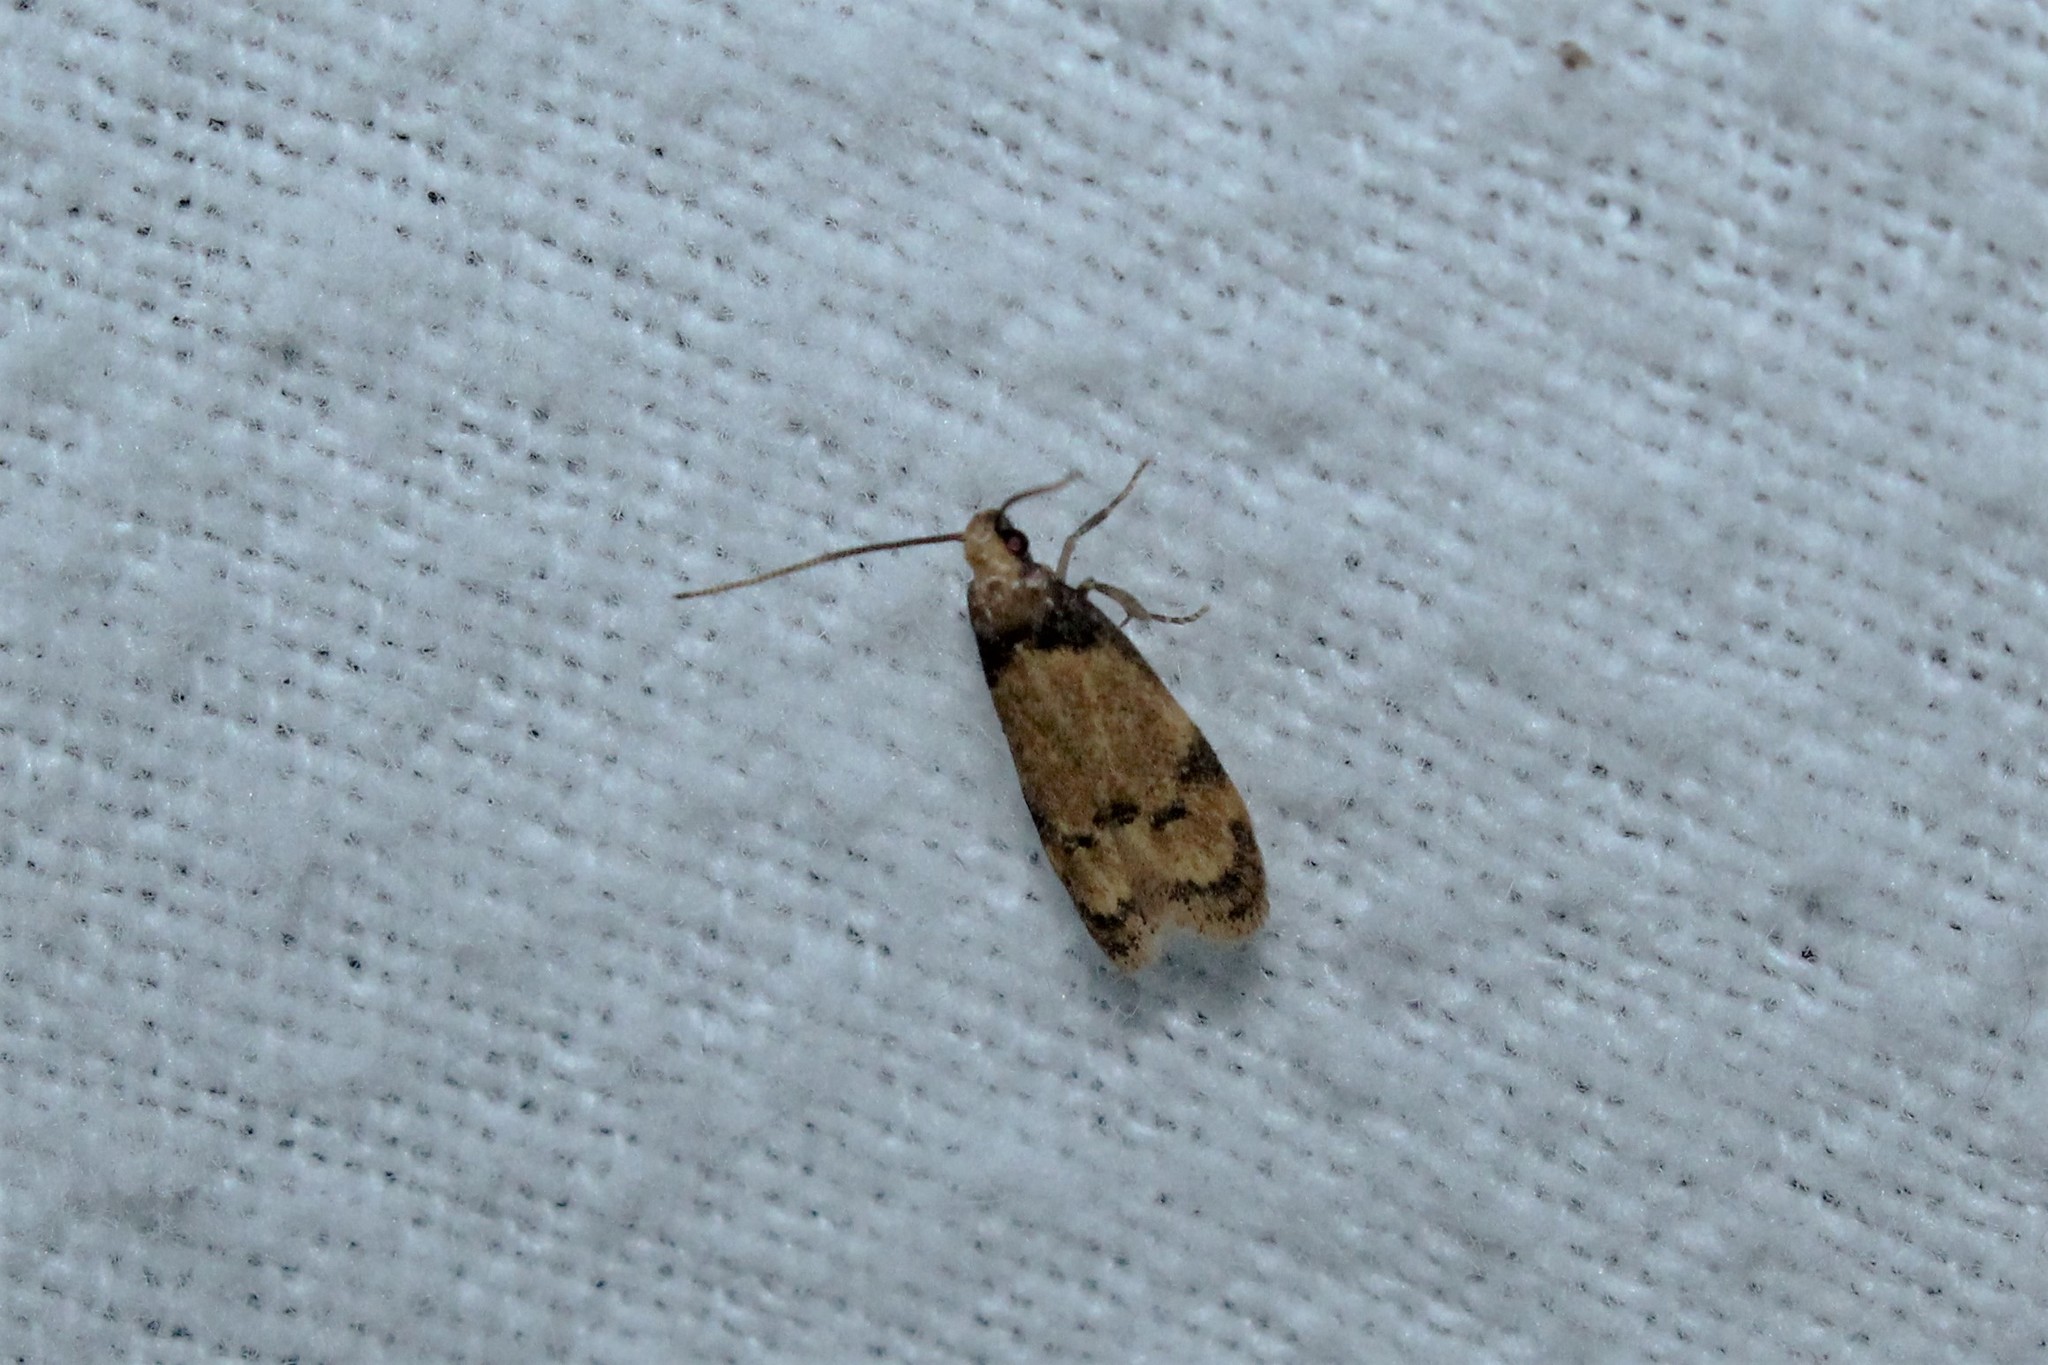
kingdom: Animalia
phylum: Arthropoda
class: Insecta
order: Lepidoptera
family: Autostichidae
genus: Gerdana
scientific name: Gerdana caritella
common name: Gerdana moth
